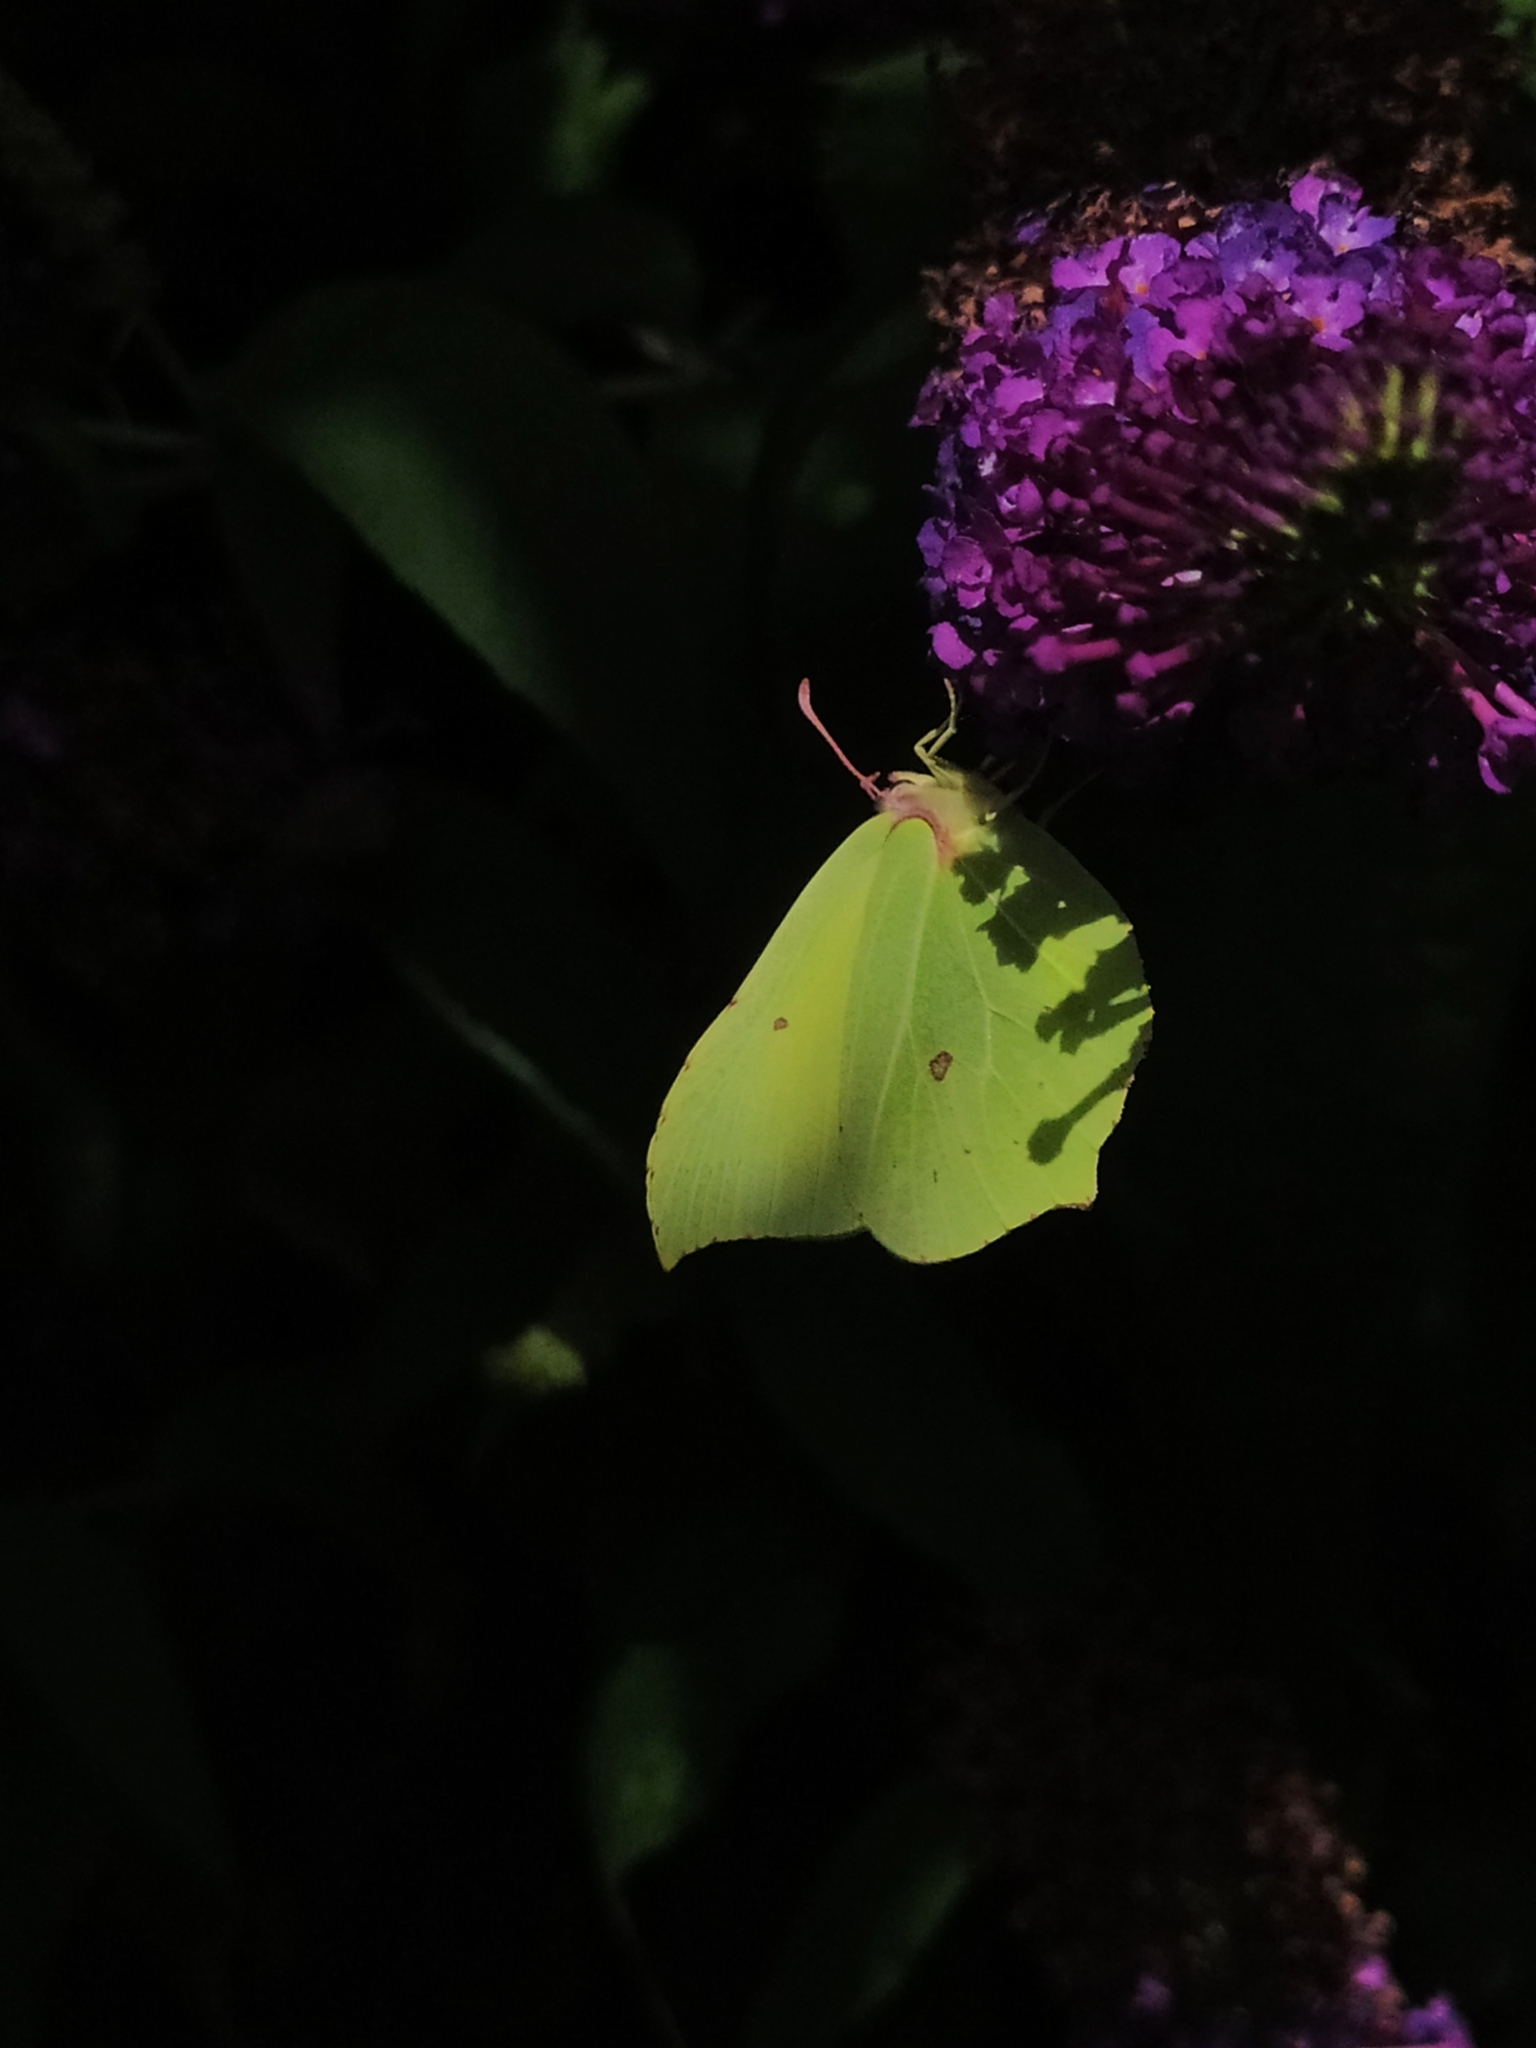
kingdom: Animalia
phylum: Arthropoda
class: Insecta
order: Lepidoptera
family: Pieridae
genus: Gonepteryx
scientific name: Gonepteryx rhamni
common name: Brimstone
